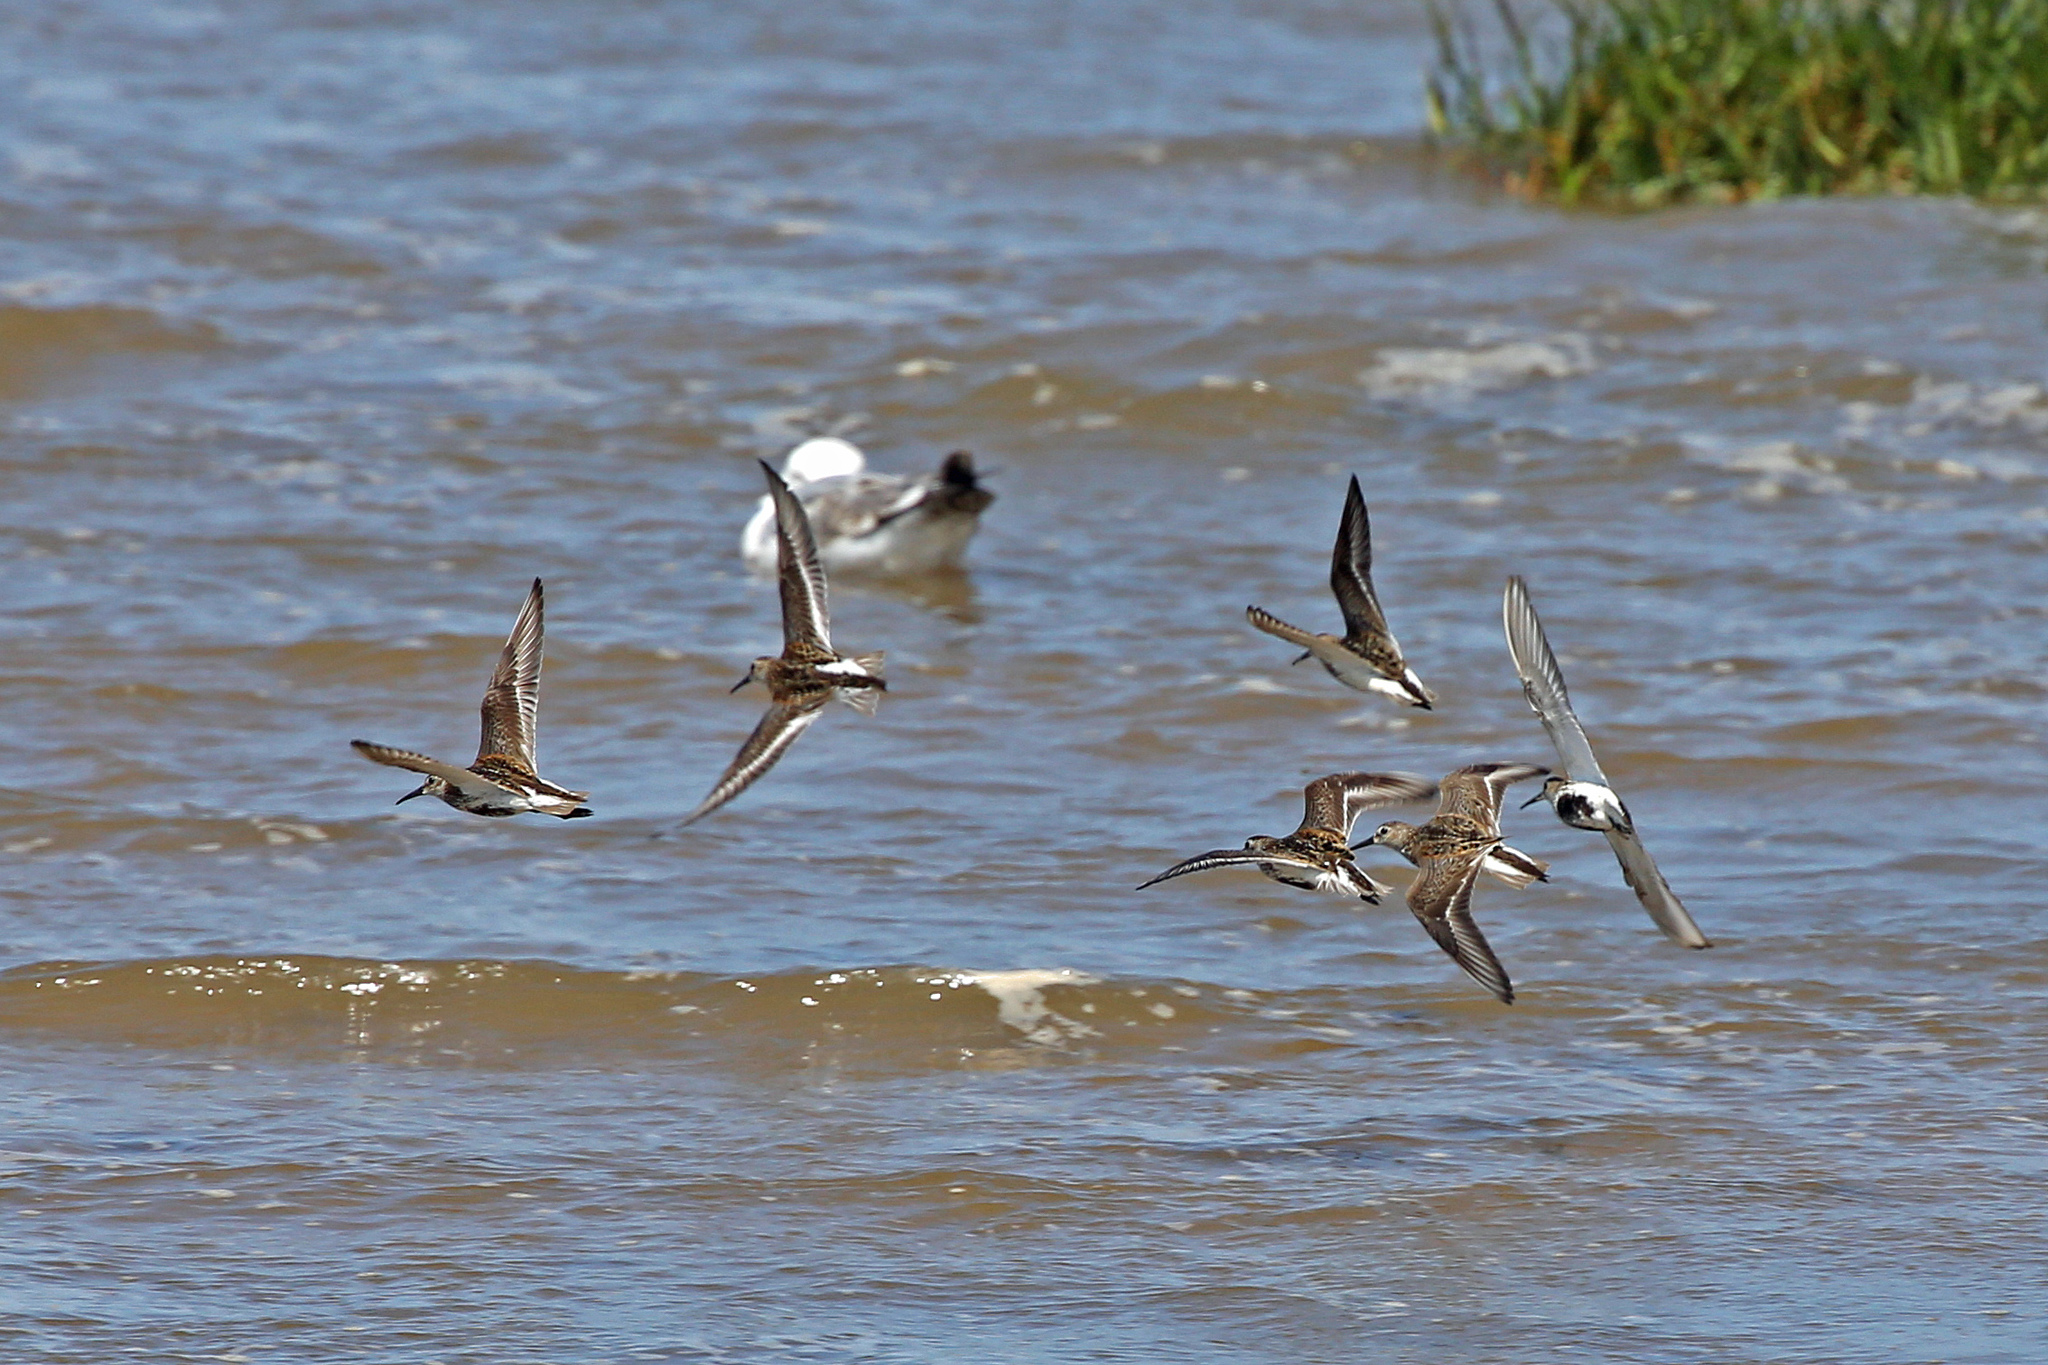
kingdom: Animalia
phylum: Chordata
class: Aves
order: Charadriiformes
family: Scolopacidae
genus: Calidris
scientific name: Calidris alpina
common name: Dunlin
